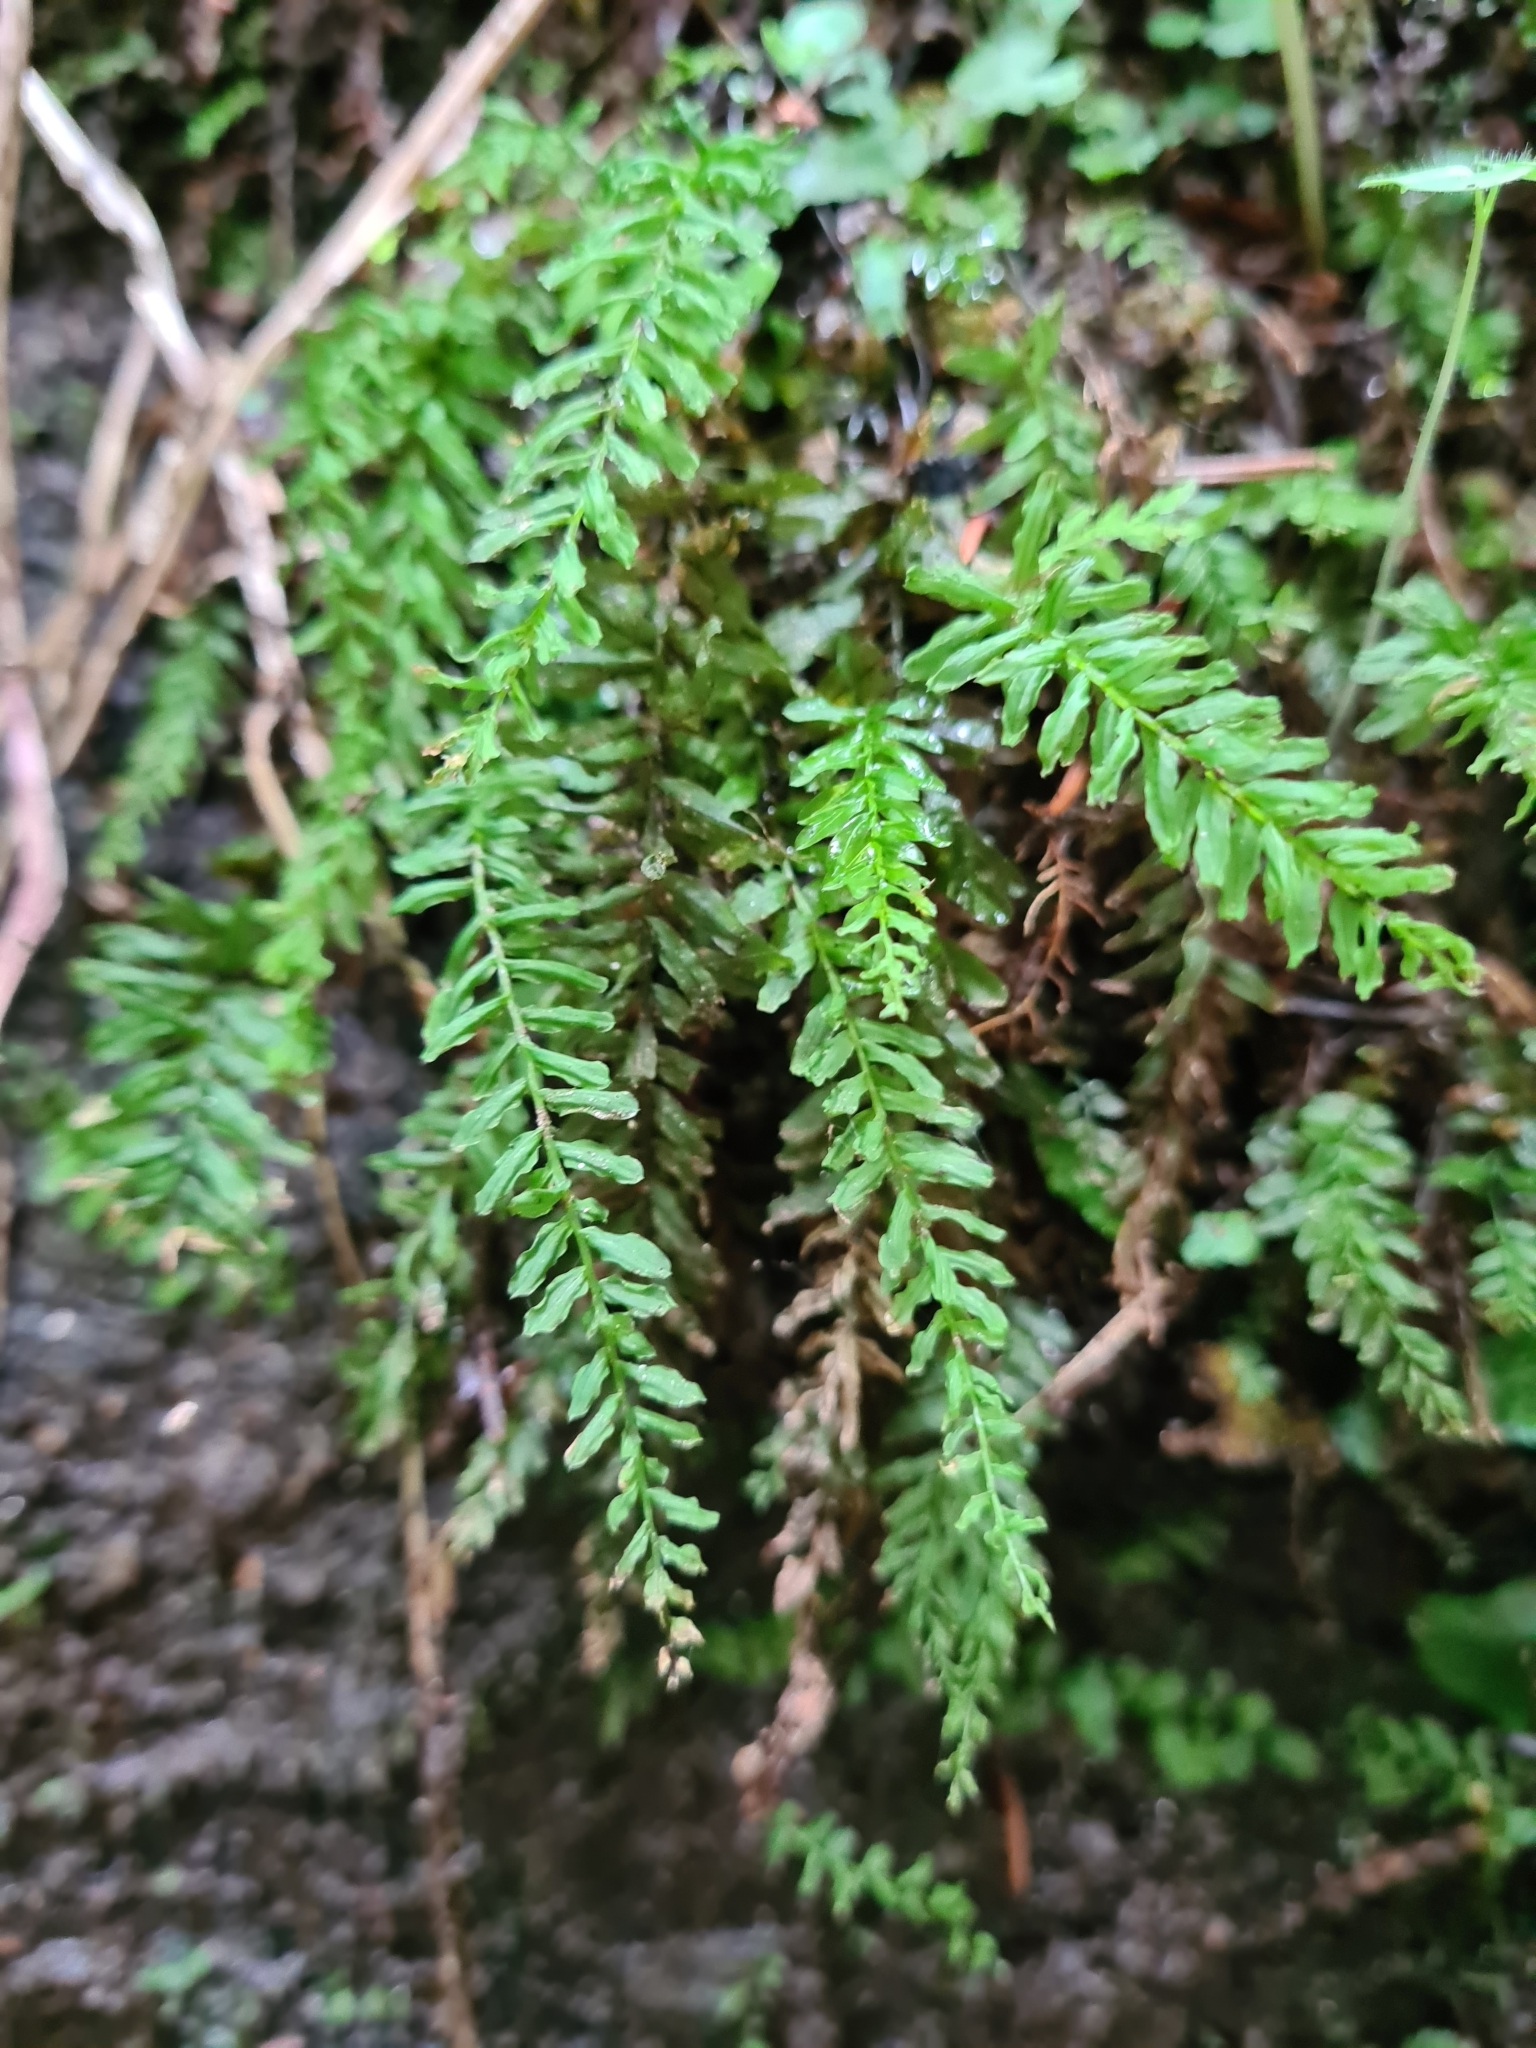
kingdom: Plantae
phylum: Bryophyta
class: Bryopsida
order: Bryales
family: Mniaceae
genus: Plagiomnium
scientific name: Plagiomnium undulatum
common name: Hart's-tongue thyme-moss
